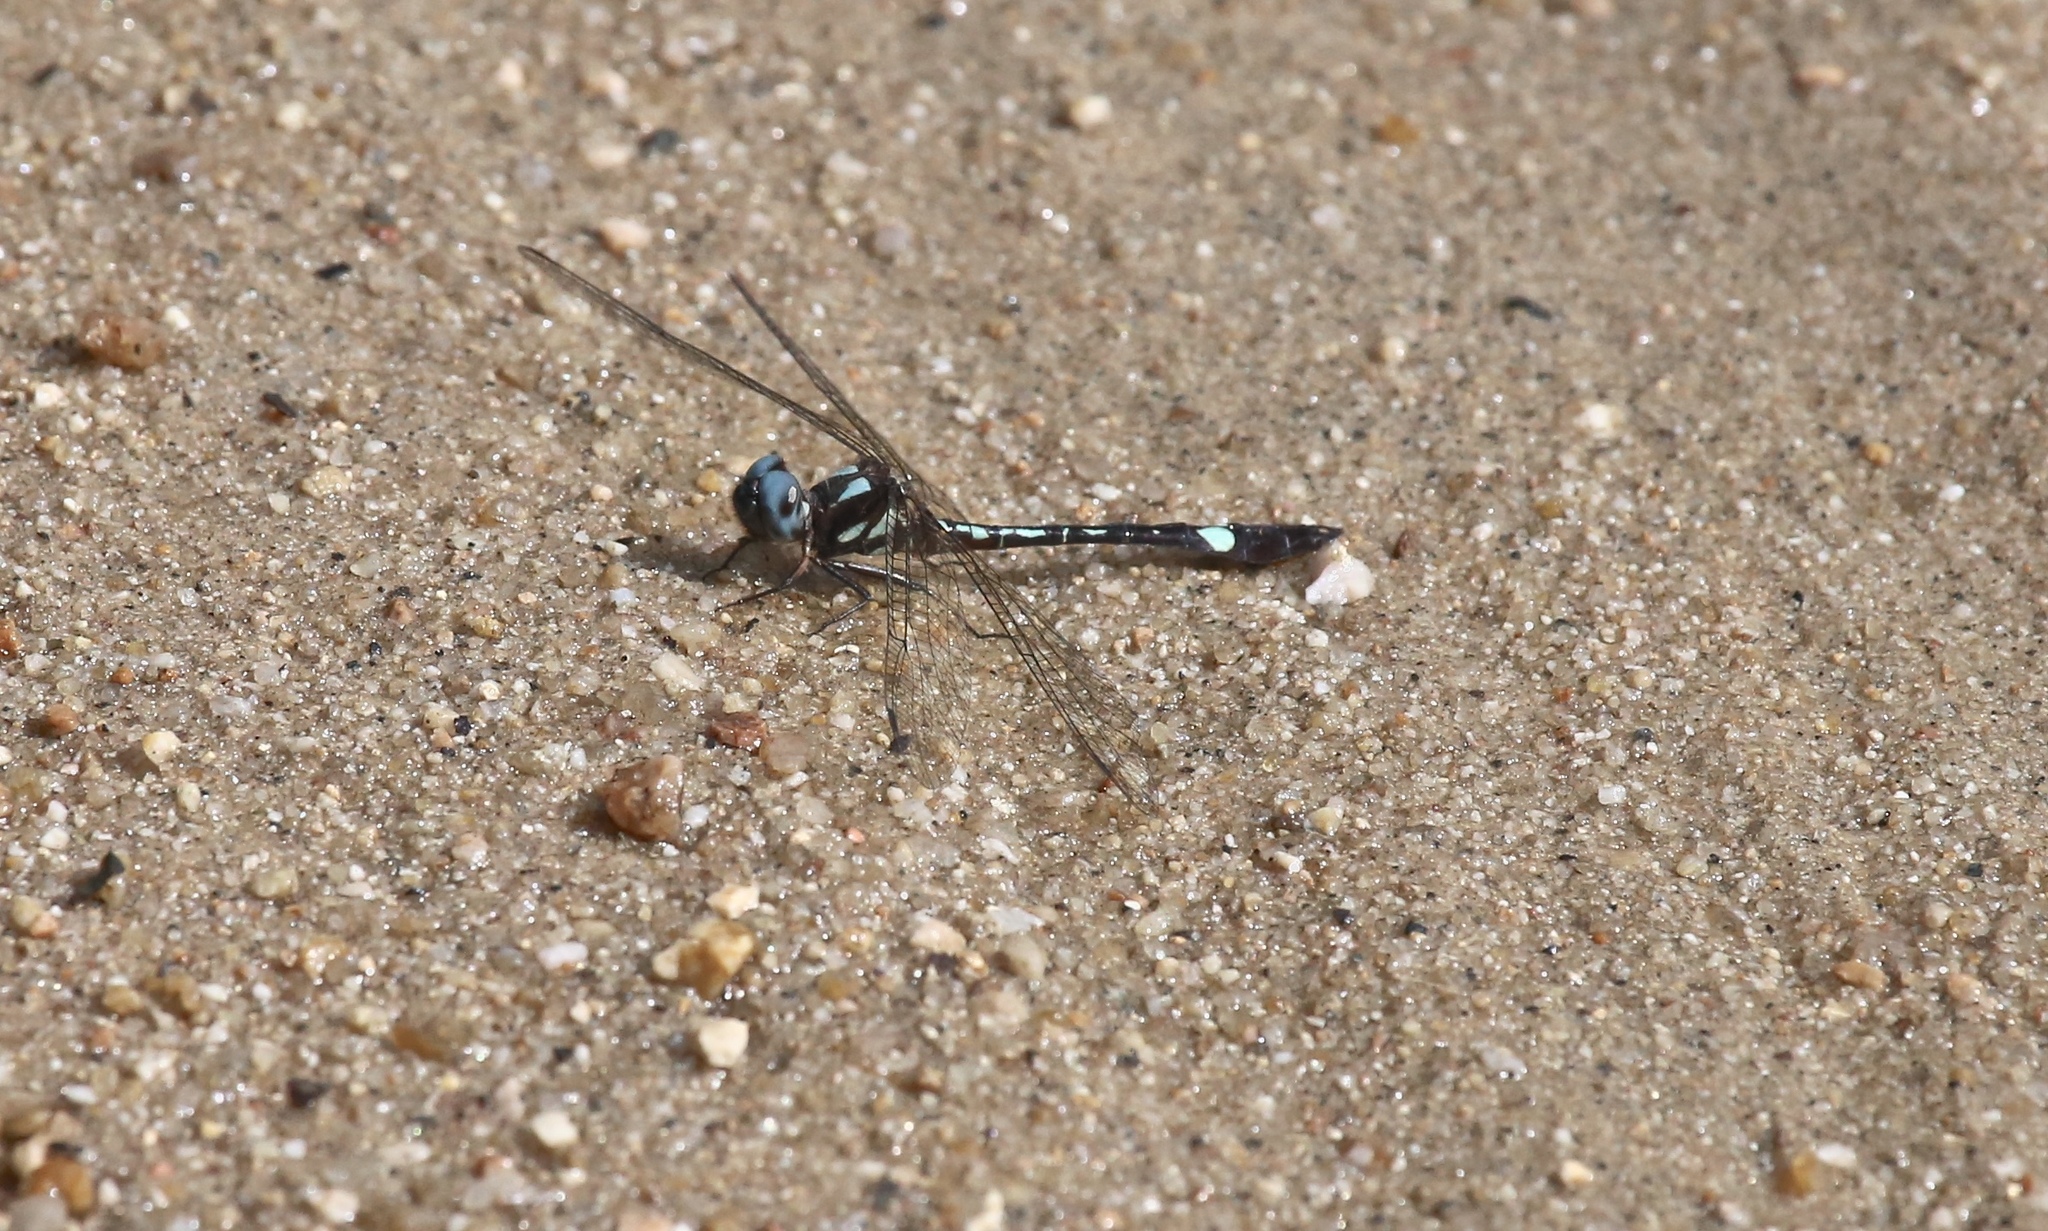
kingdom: Animalia
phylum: Arthropoda
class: Insecta
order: Odonata
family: Libellulidae
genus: Macrothemis
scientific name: Macrothemis pseudimitans
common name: White-tailed sylph
